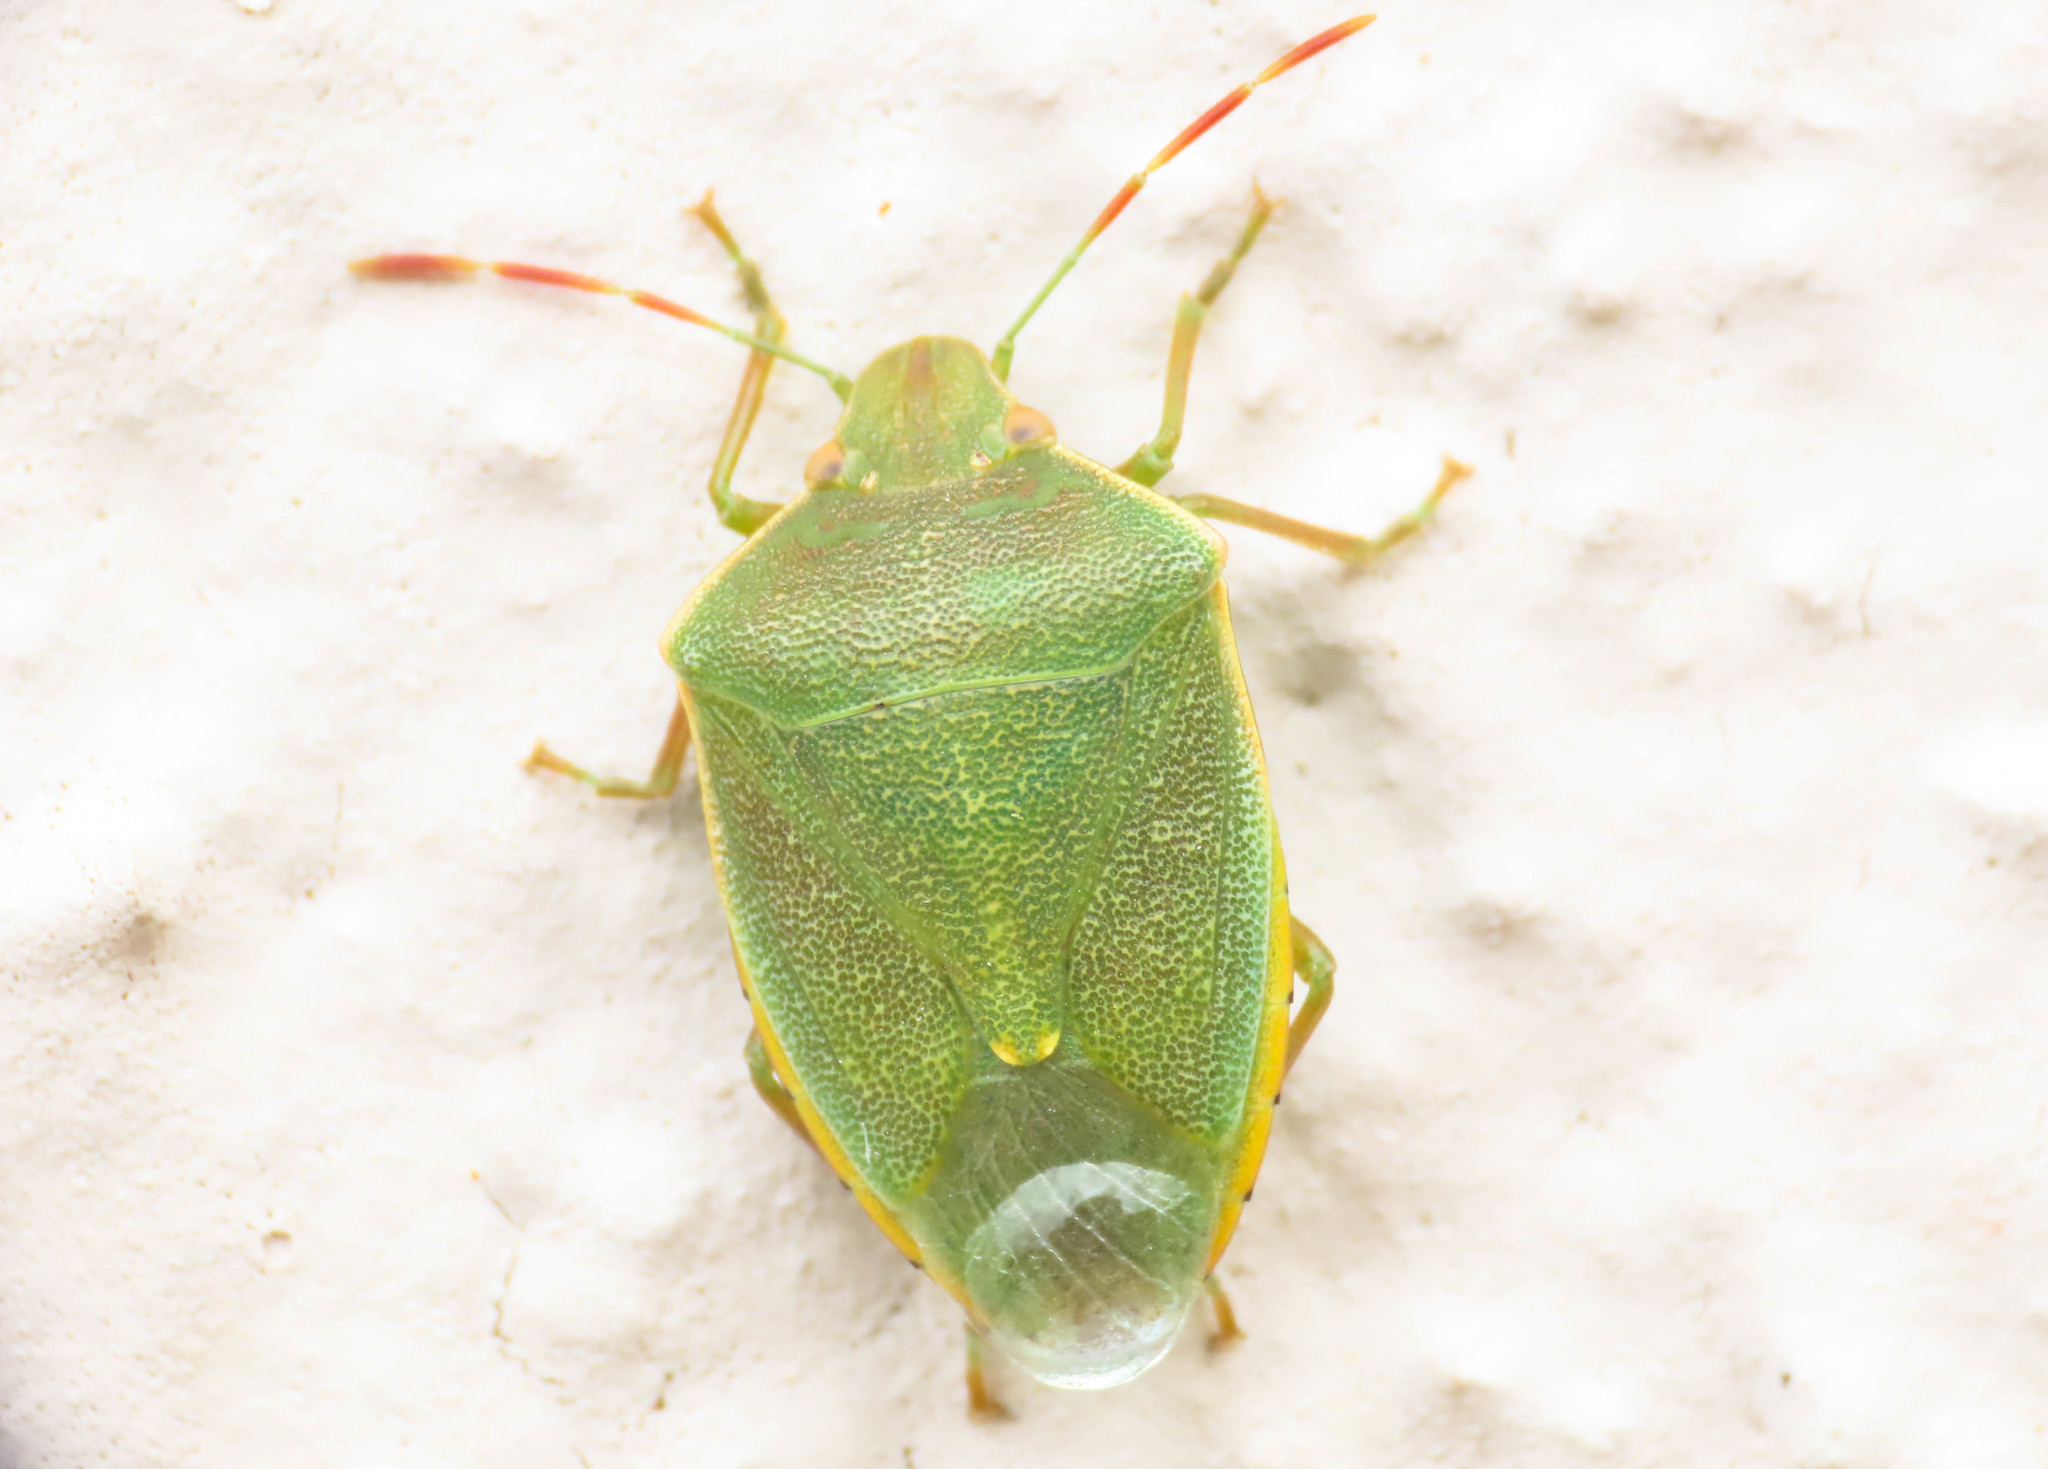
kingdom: Animalia
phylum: Arthropoda
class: Insecta
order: Hemiptera
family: Pentatomidae
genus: Acrosternum
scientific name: Acrosternum heegeri
